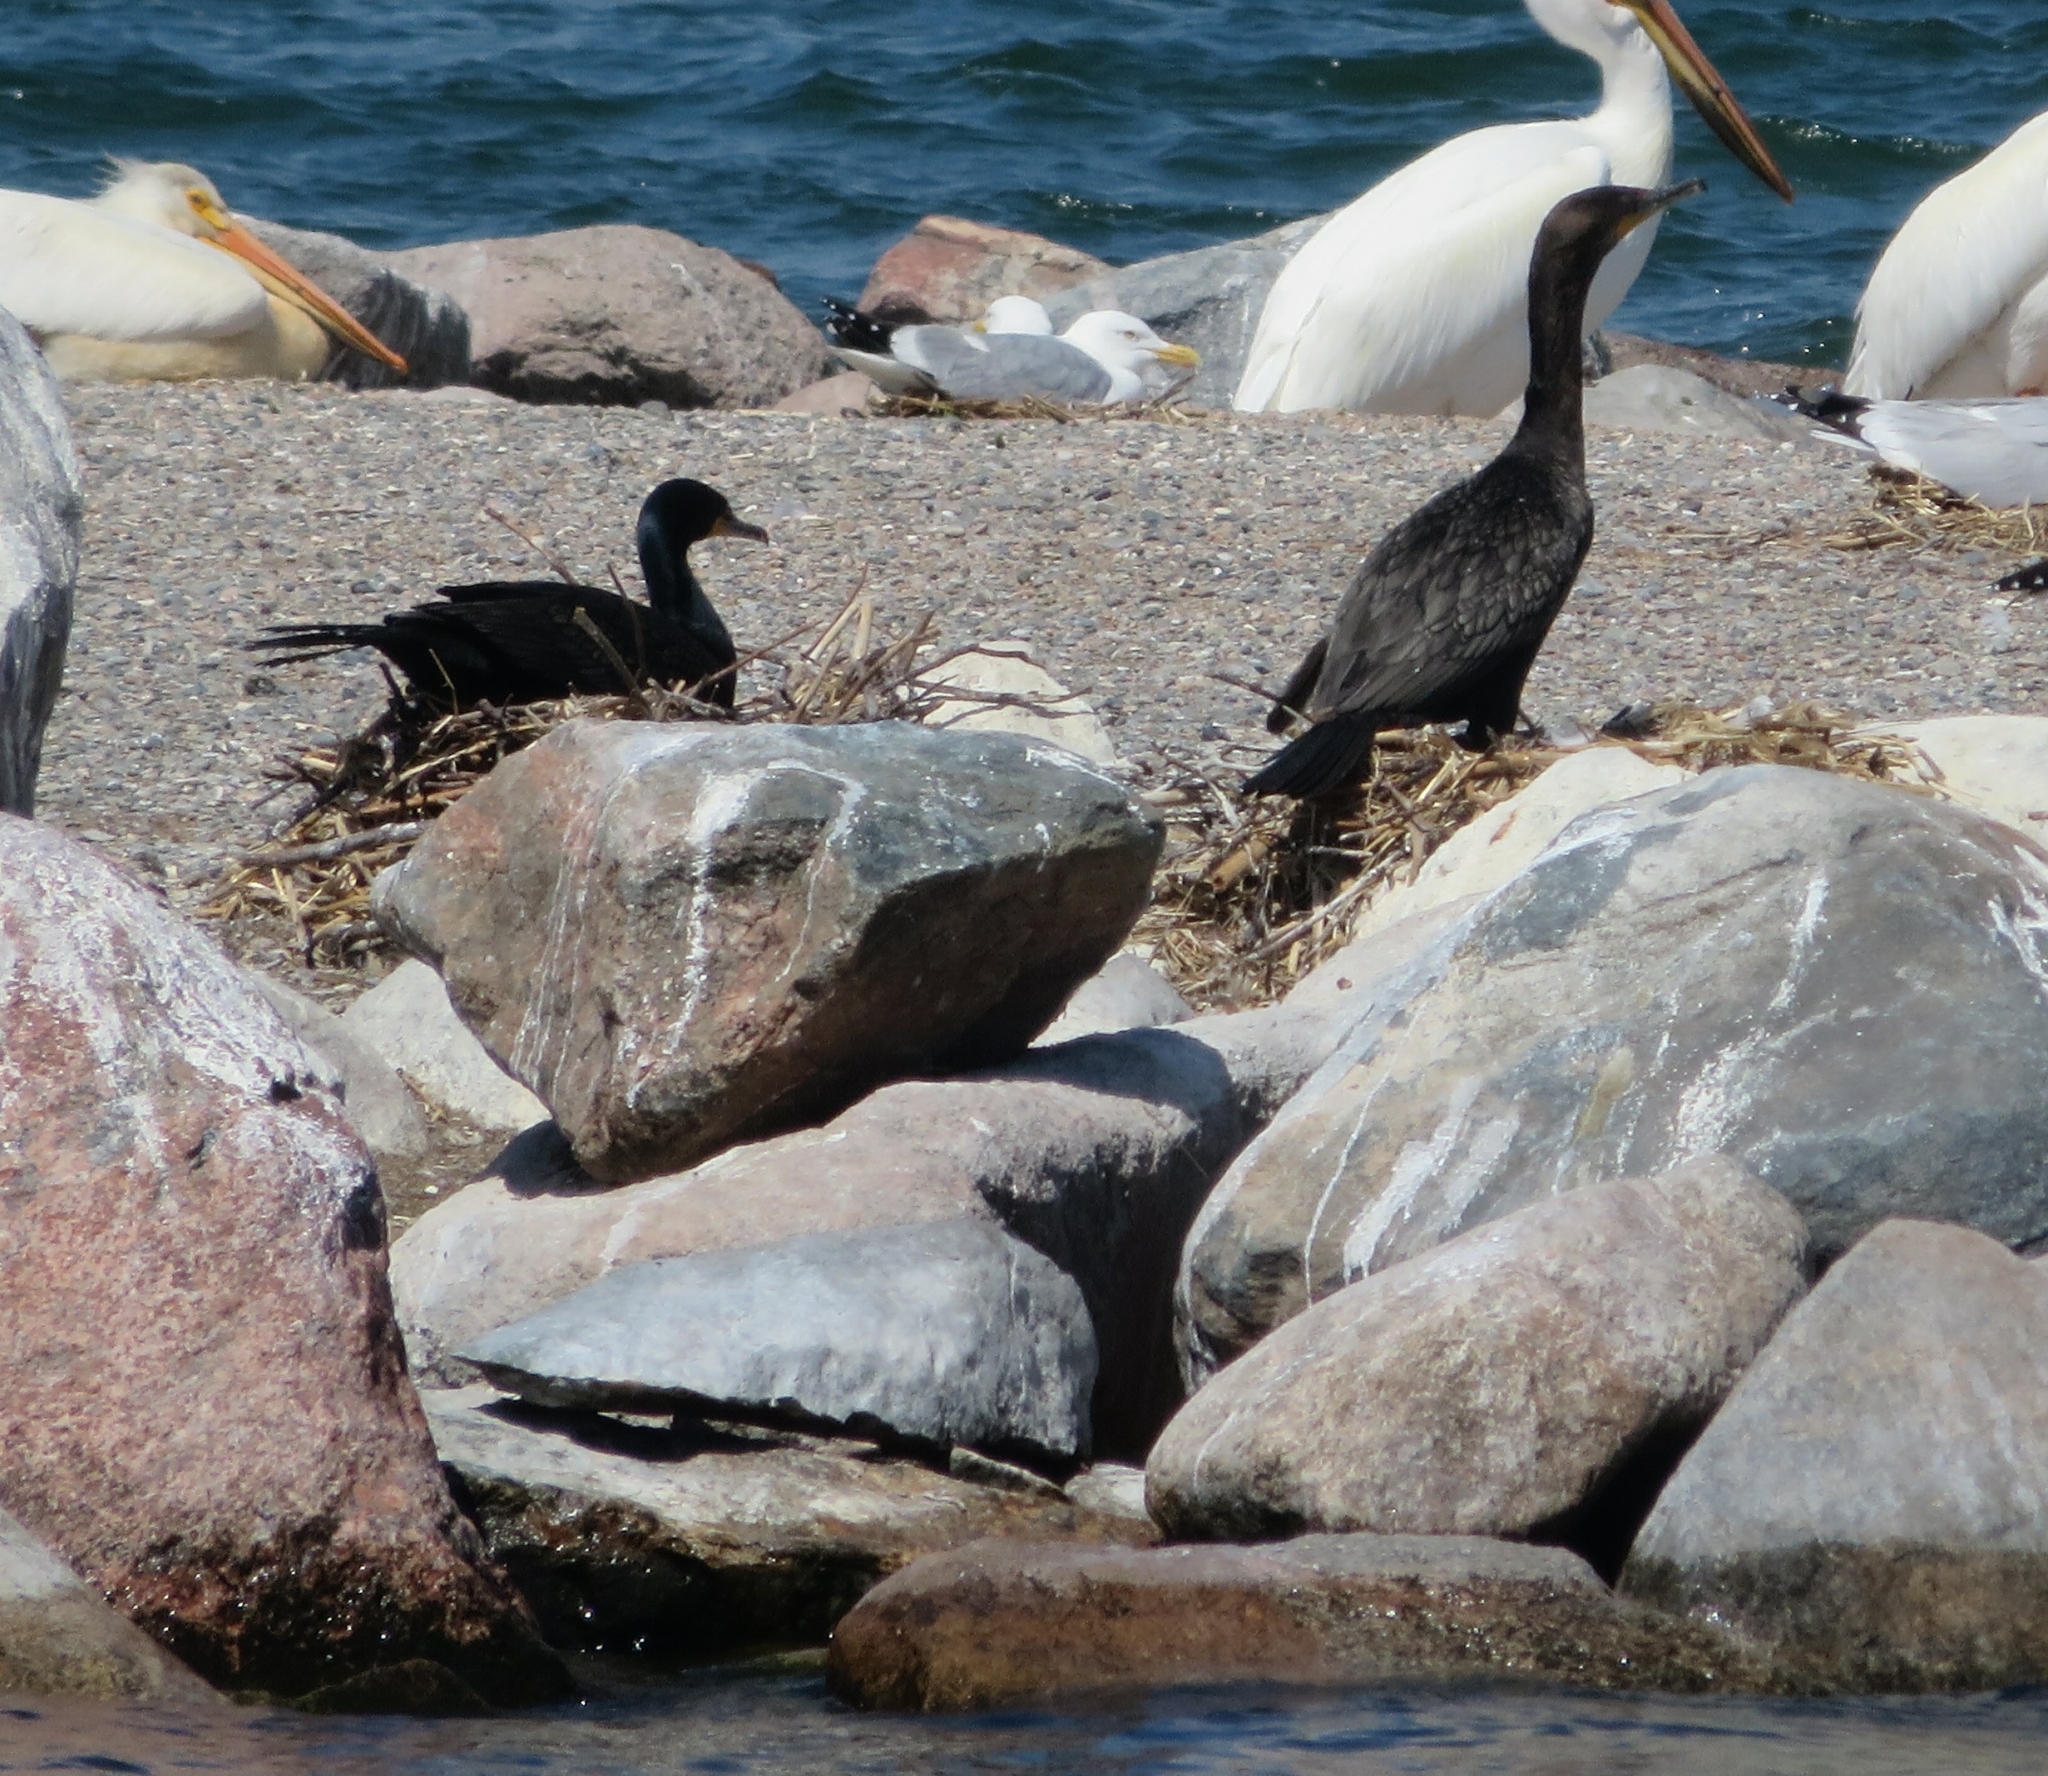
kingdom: Animalia
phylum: Chordata
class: Aves
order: Suliformes
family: Phalacrocoracidae
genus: Phalacrocorax
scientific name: Phalacrocorax auritus
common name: Double-crested cormorant
